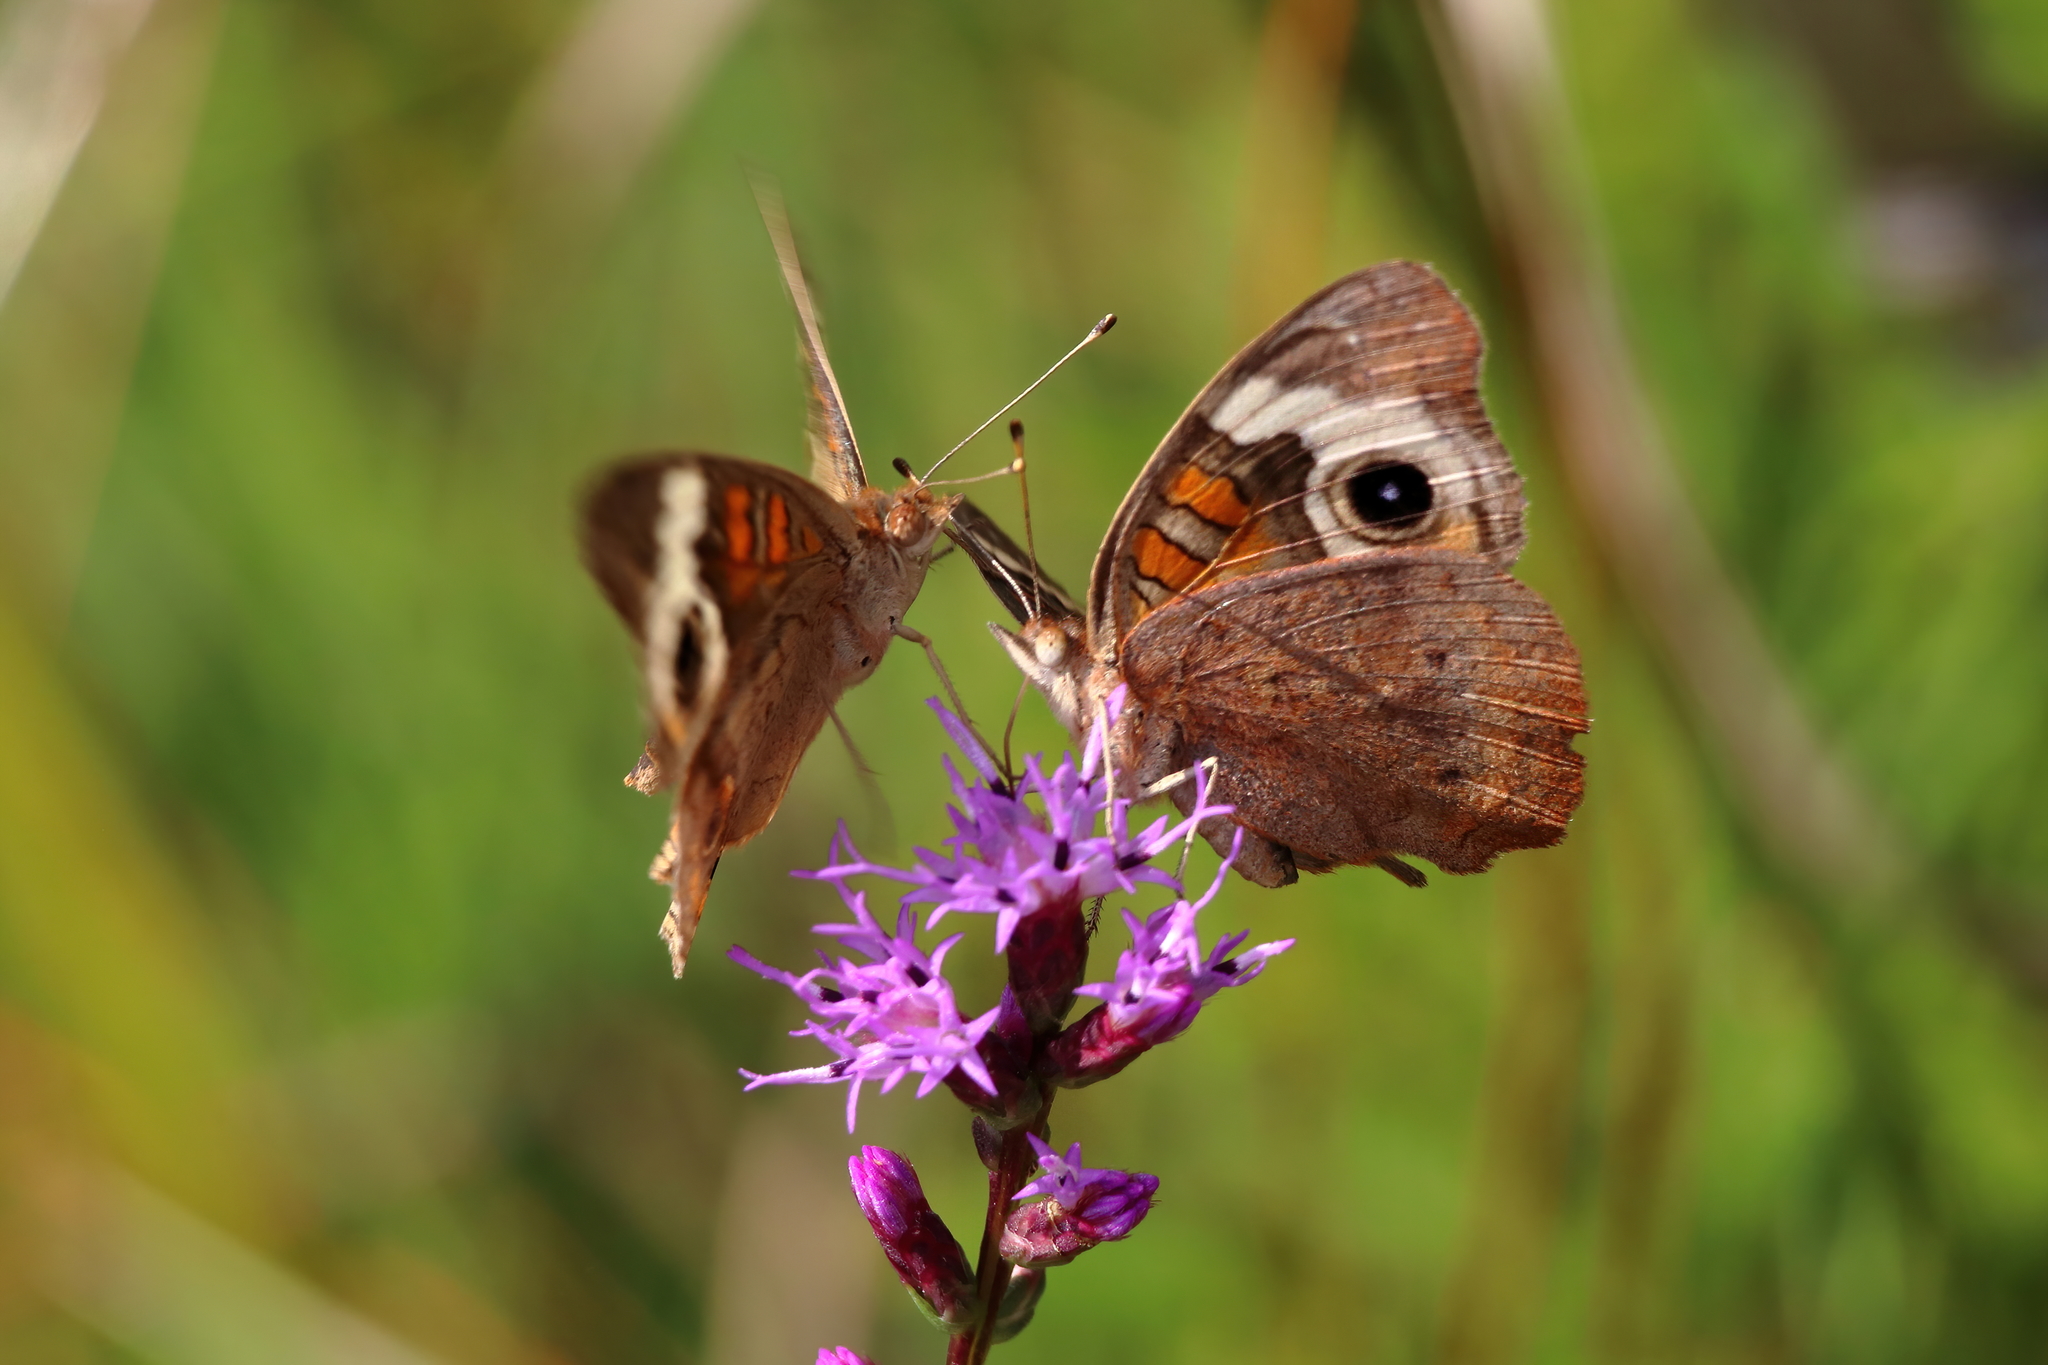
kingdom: Animalia
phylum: Arthropoda
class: Insecta
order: Lepidoptera
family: Nymphalidae
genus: Junonia
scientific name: Junonia coenia
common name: Common buckeye
